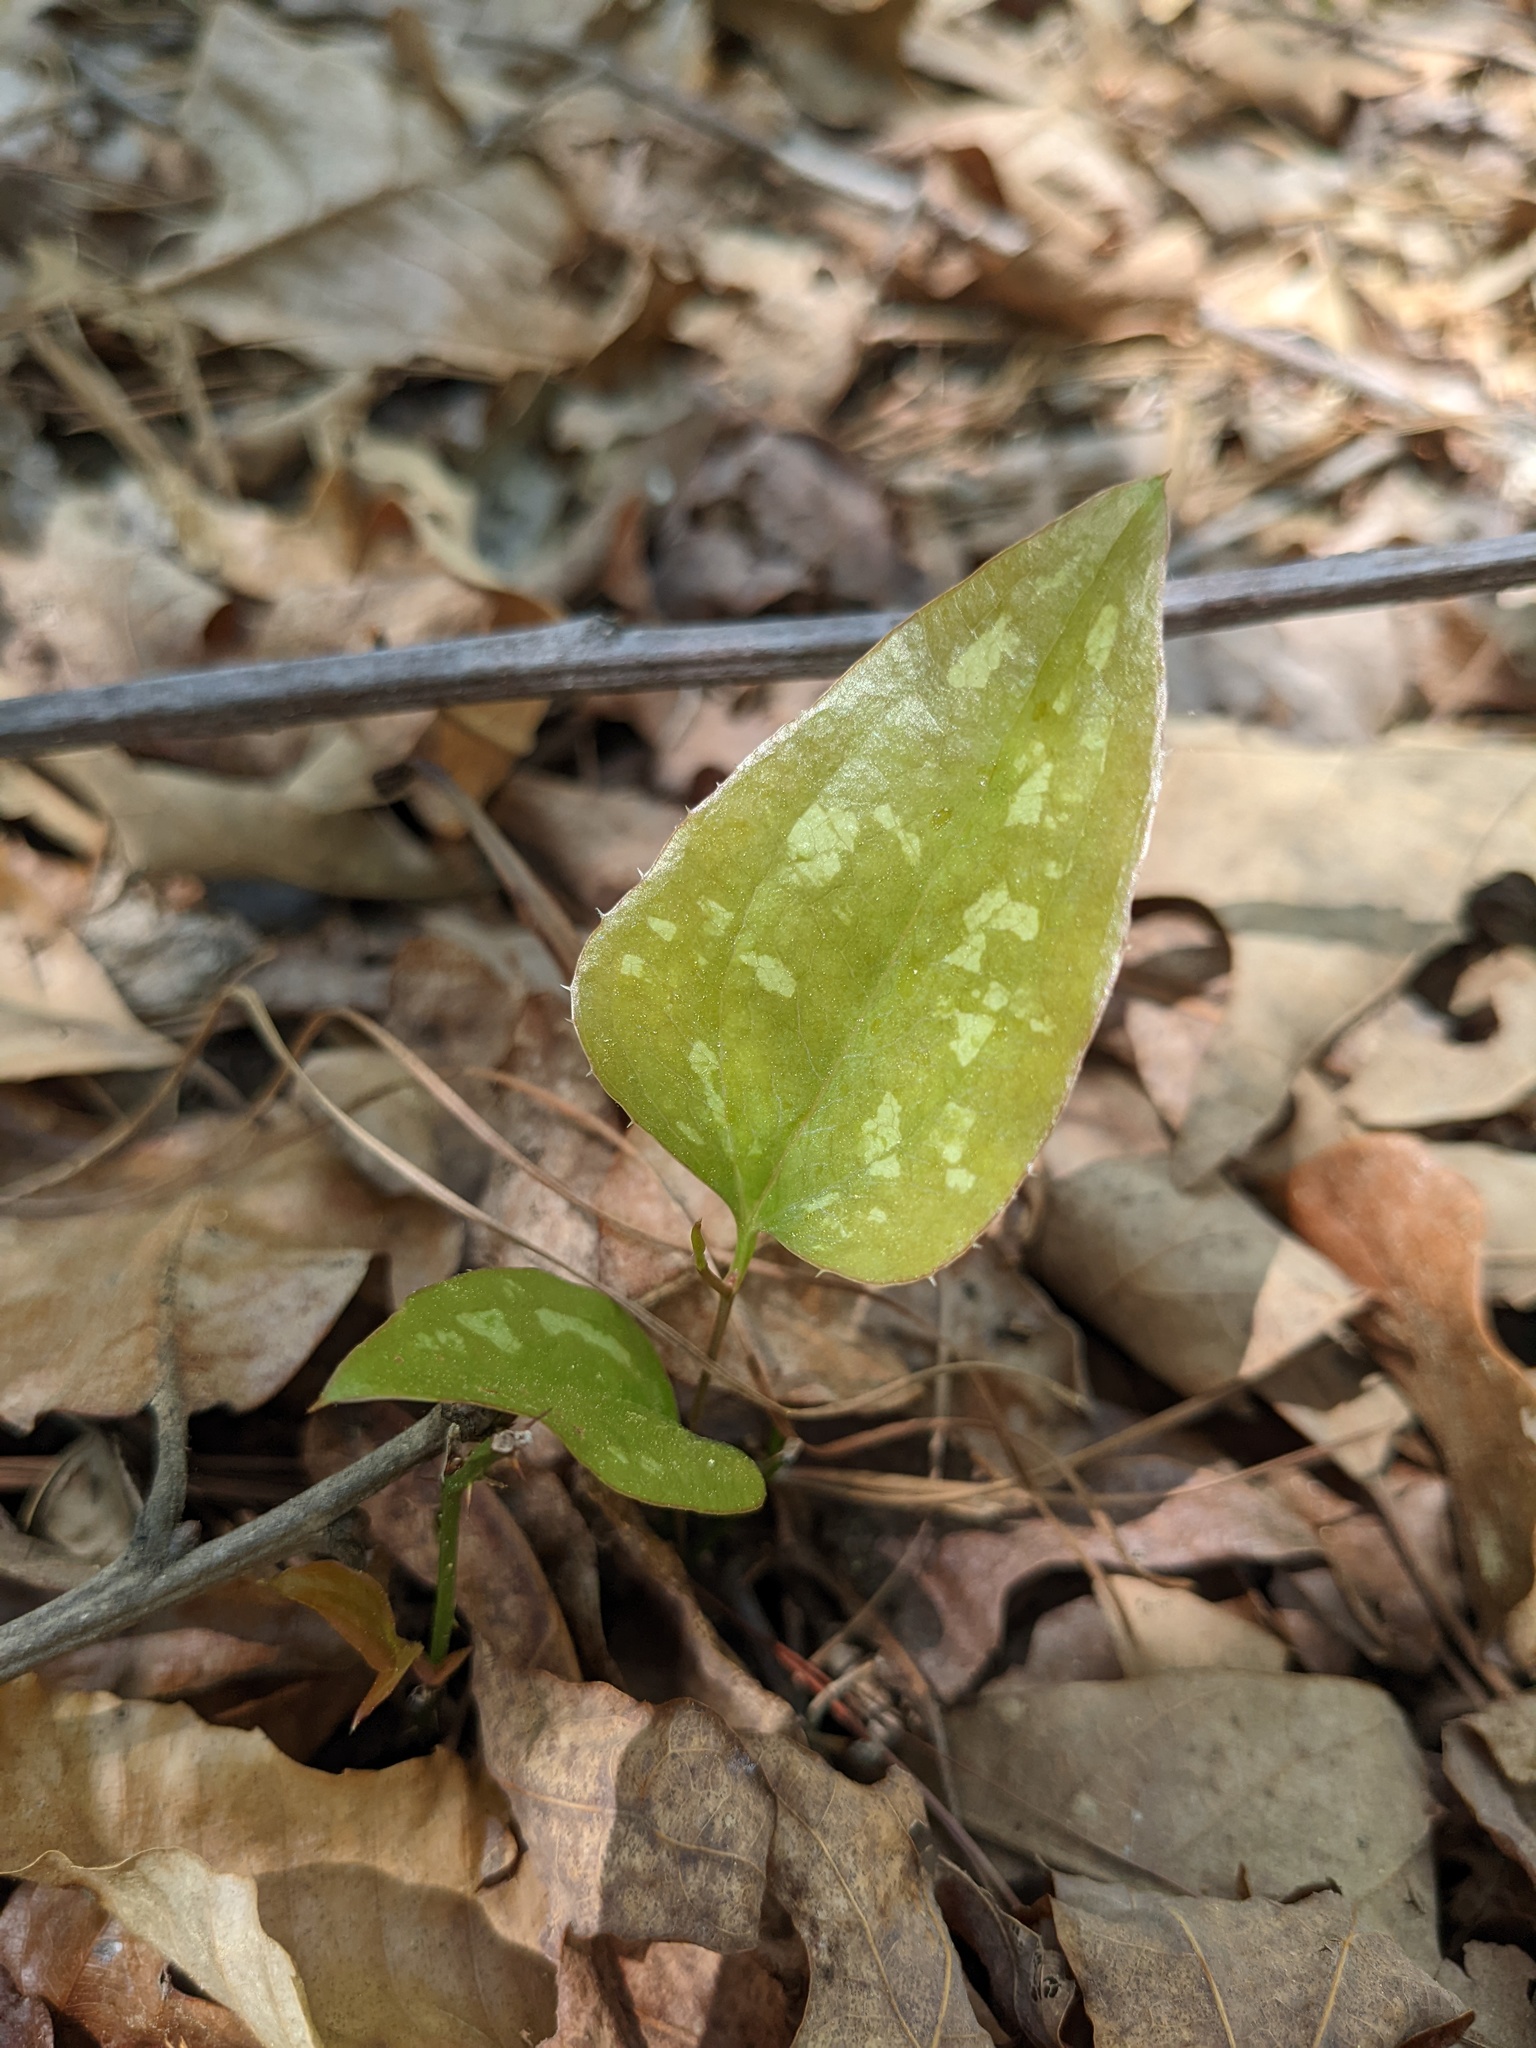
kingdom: Plantae
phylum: Tracheophyta
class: Liliopsida
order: Liliales
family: Smilacaceae
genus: Smilax
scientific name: Smilax bona-nox
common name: Catbrier
